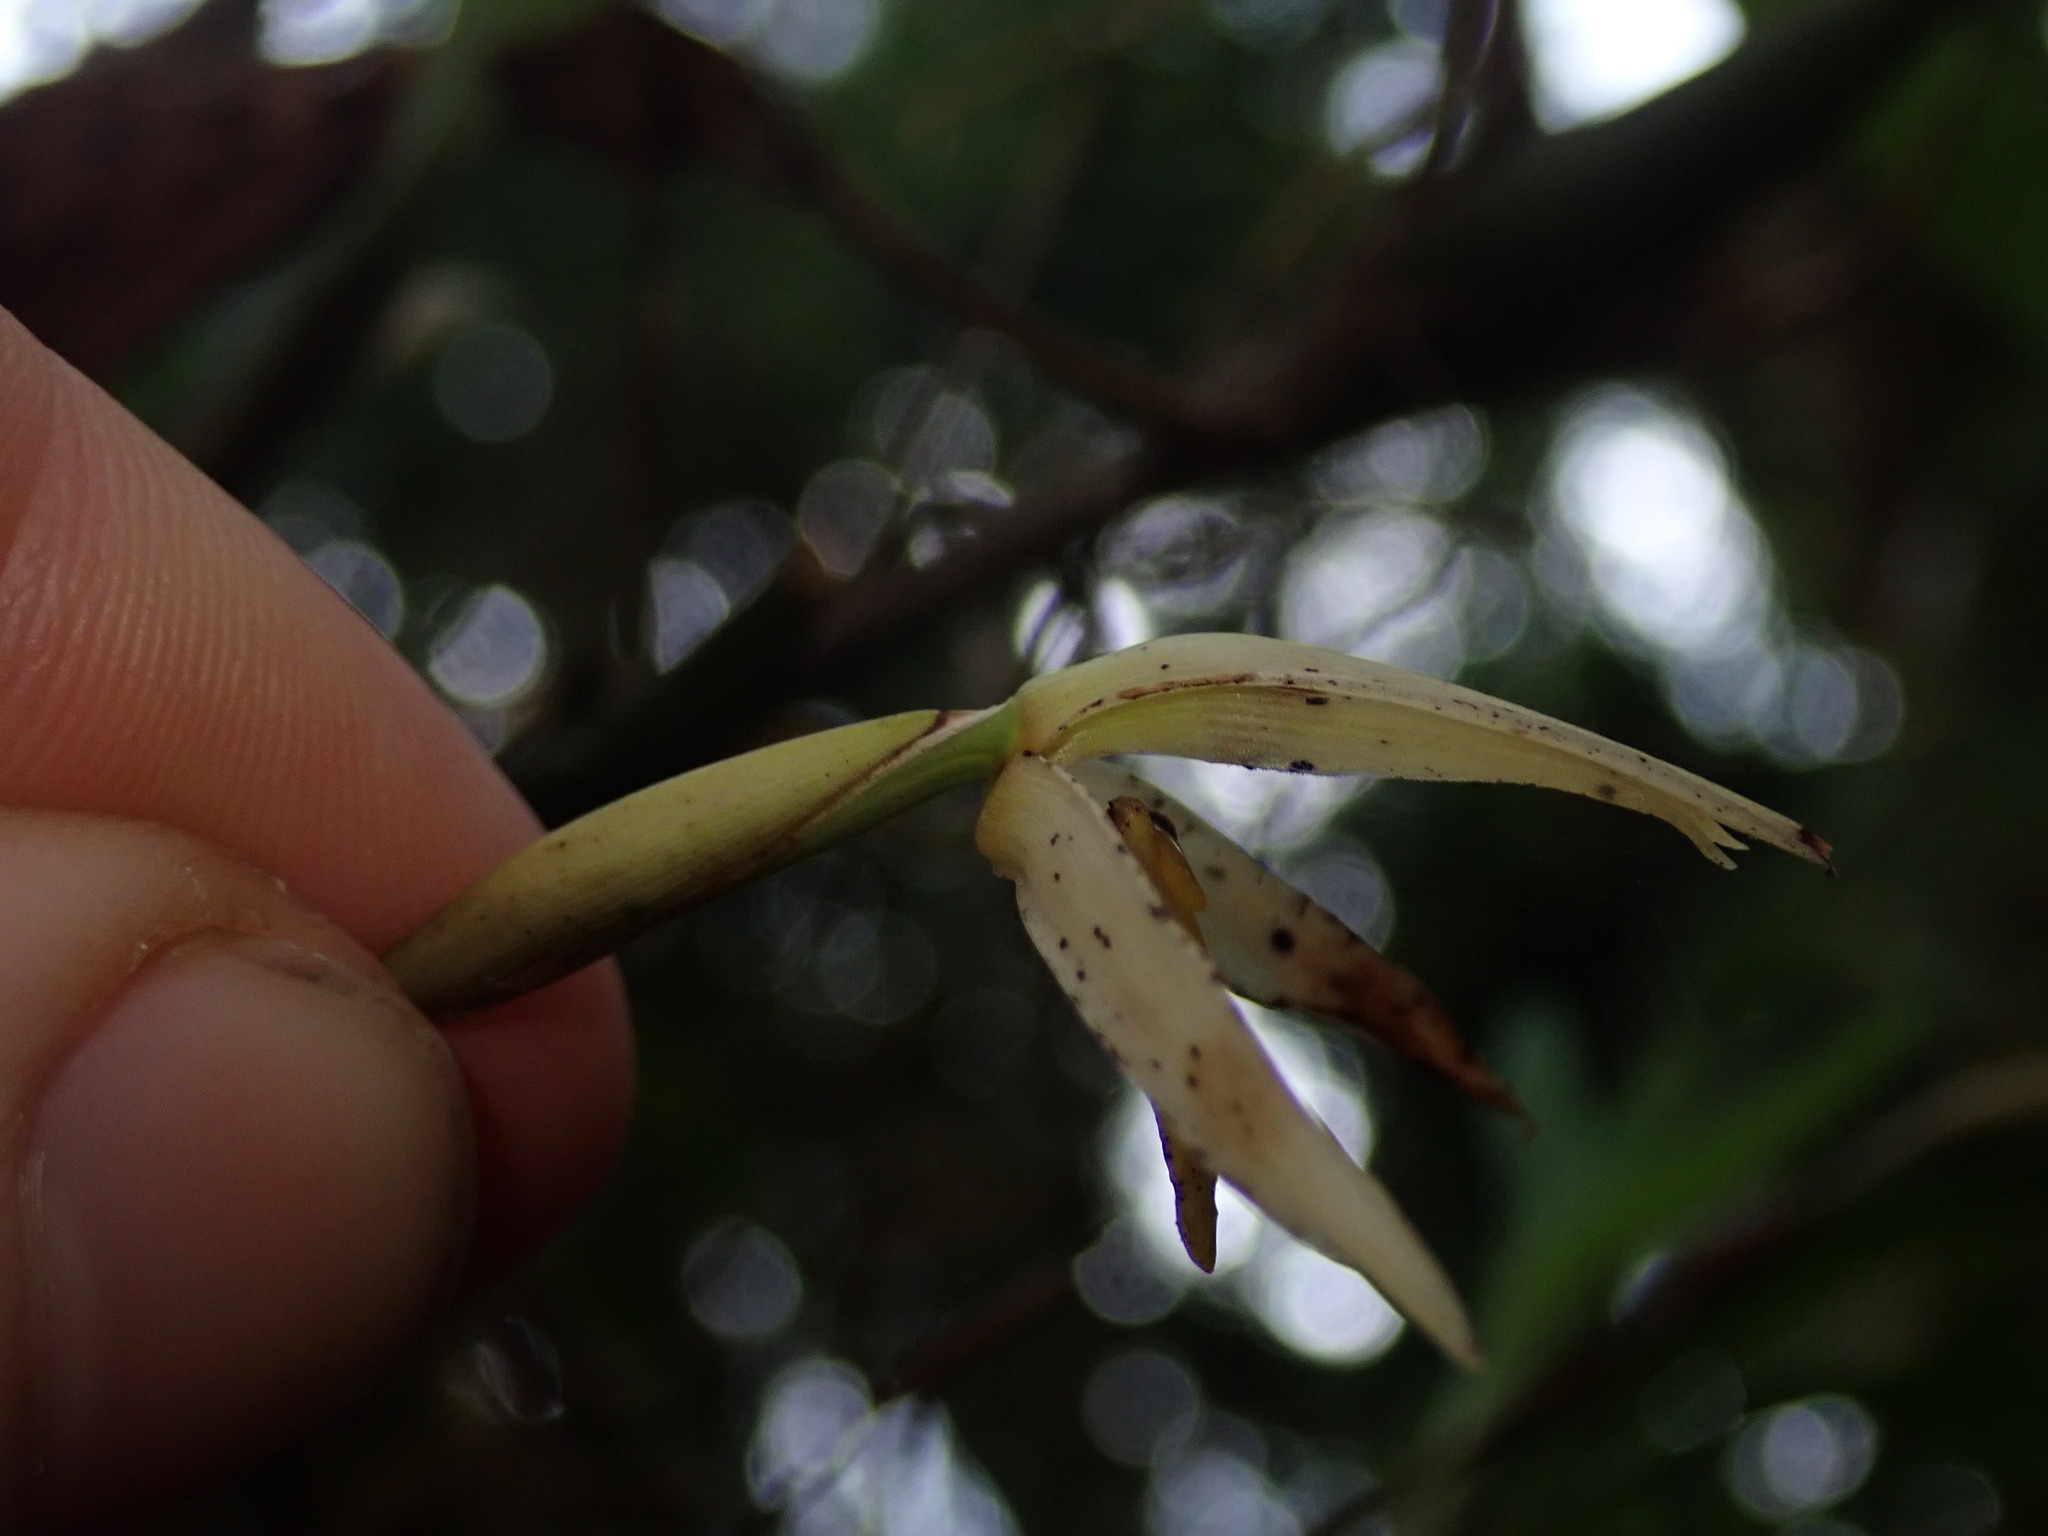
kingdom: Plantae
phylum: Tracheophyta
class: Liliopsida
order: Asparagales
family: Orchidaceae
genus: Maxillaria
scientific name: Maxillaria acuminata
